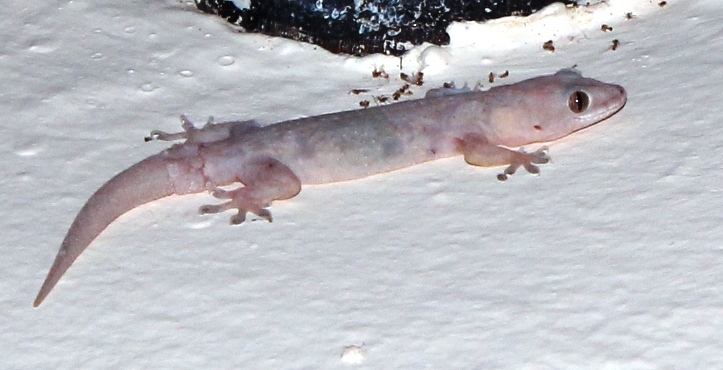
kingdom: Animalia
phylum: Chordata
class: Squamata
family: Gekkonidae
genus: Hemidactylus
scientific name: Hemidactylus mabouia
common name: House gecko
